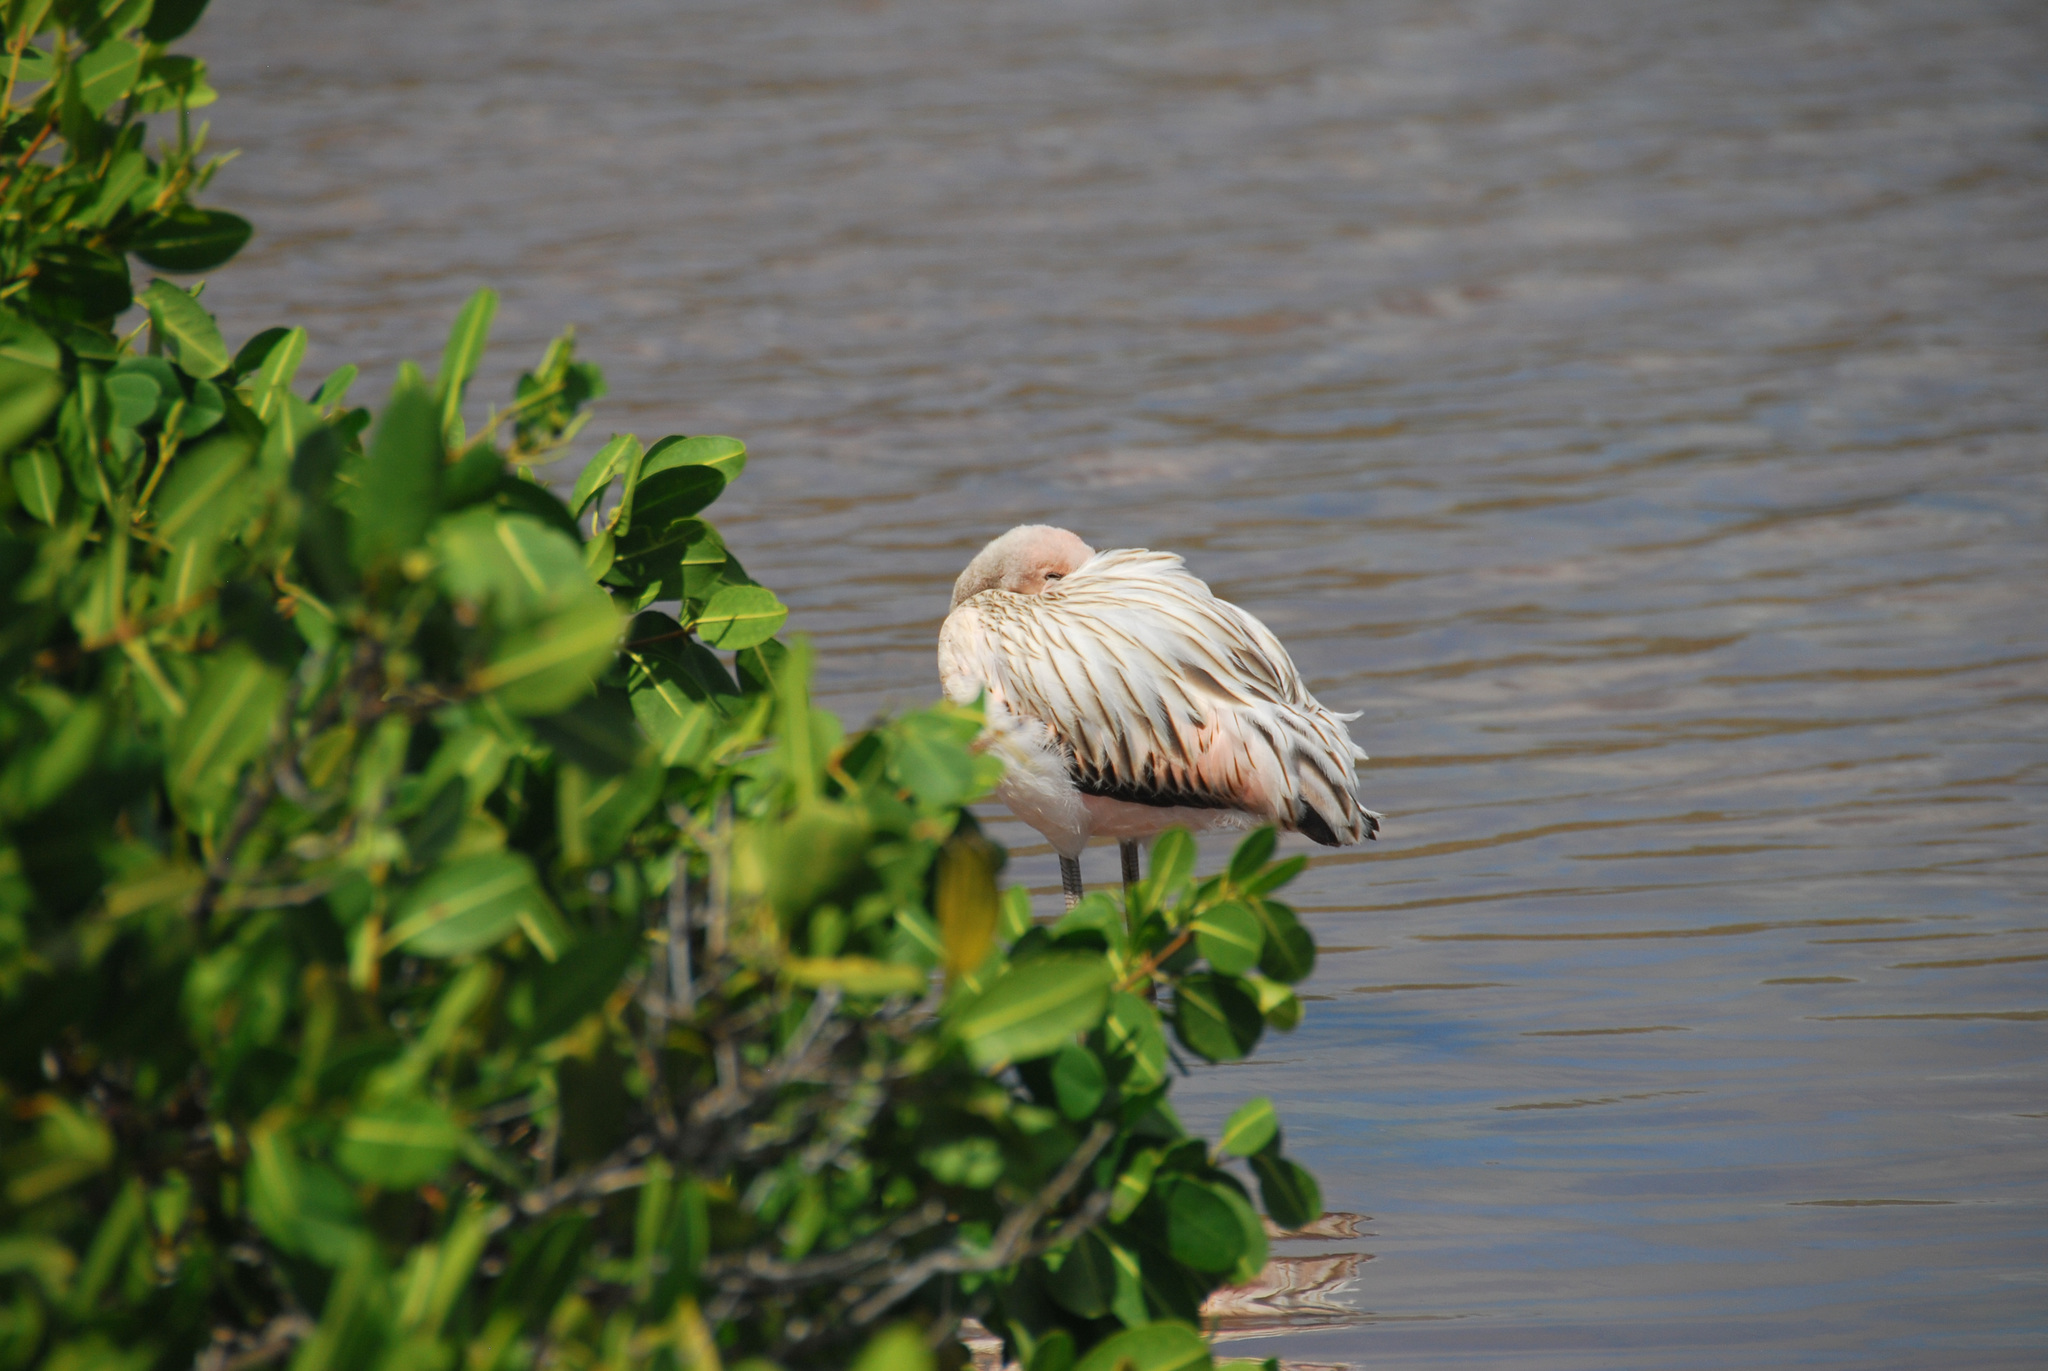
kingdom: Animalia
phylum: Chordata
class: Aves
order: Phoenicopteriformes
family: Phoenicopteridae
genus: Phoenicopterus
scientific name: Phoenicopterus ruber
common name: American flamingo
